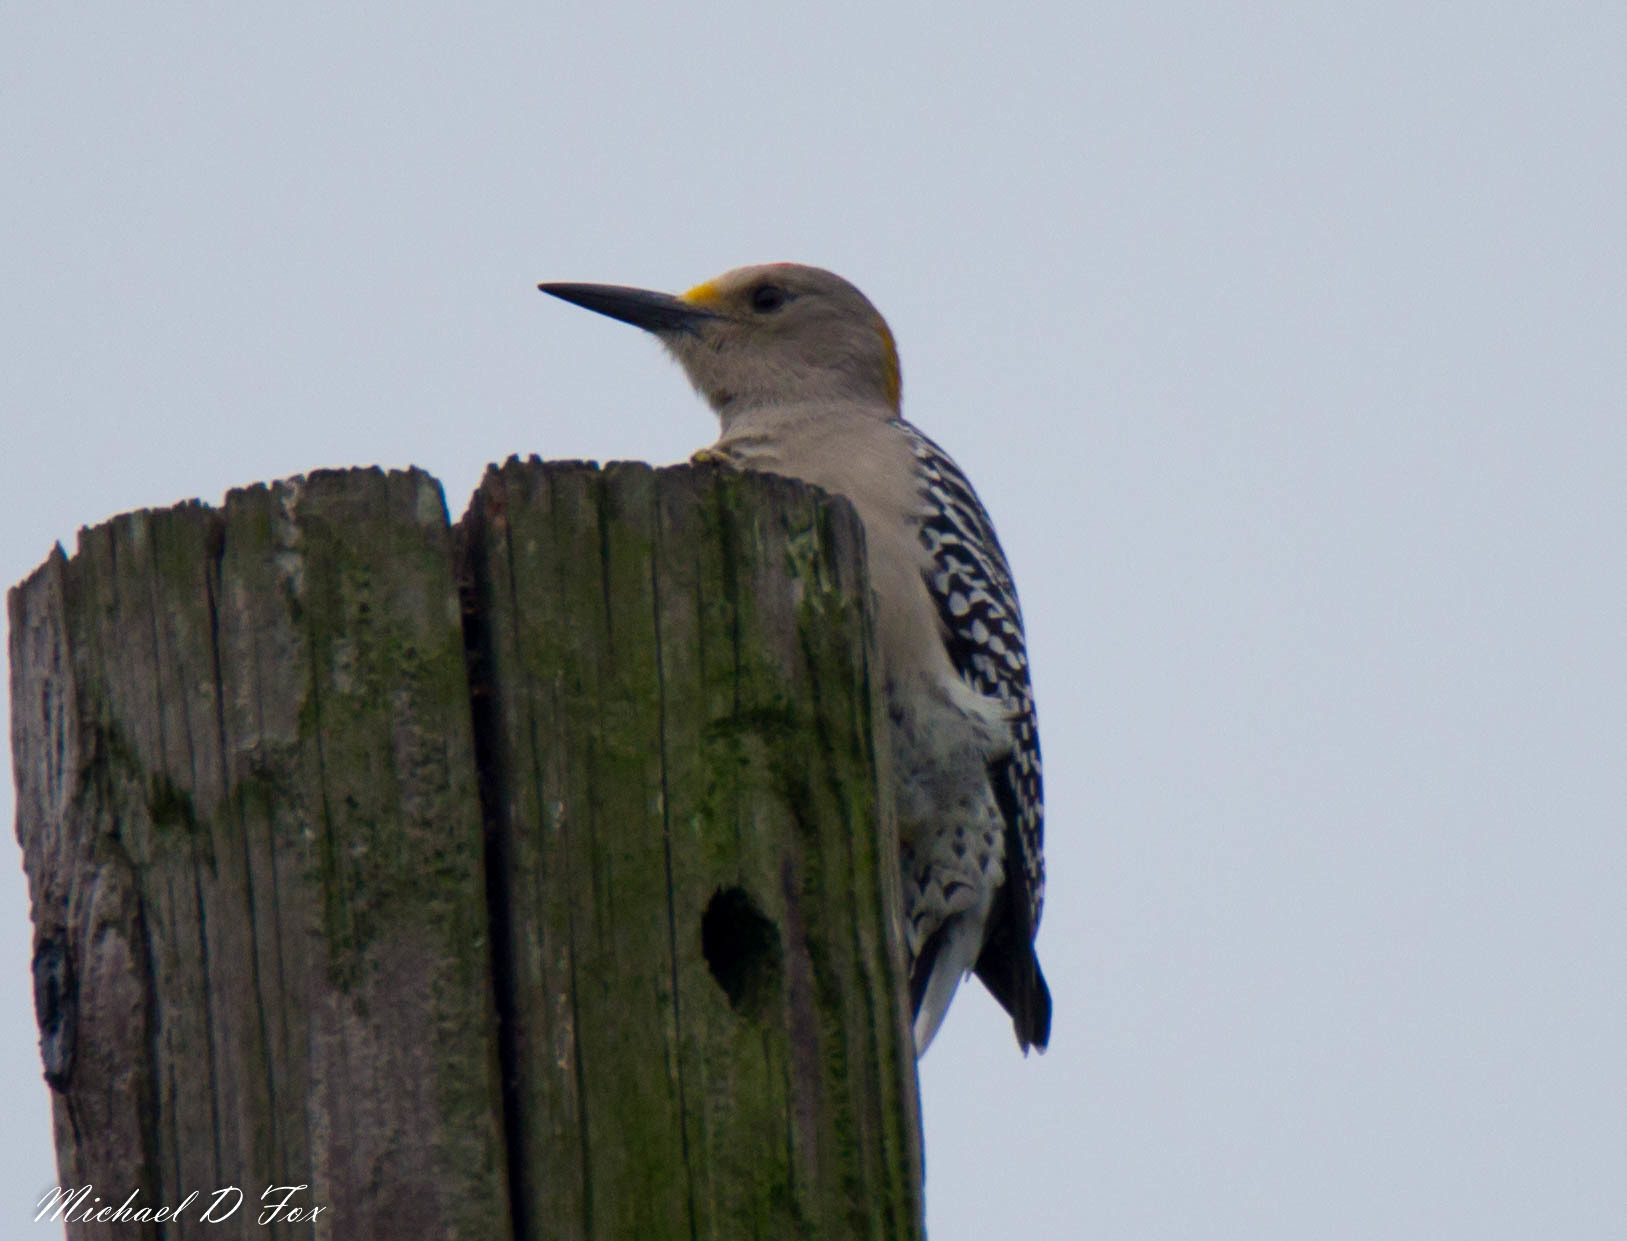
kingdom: Animalia
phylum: Chordata
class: Aves
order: Piciformes
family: Picidae
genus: Melanerpes
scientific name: Melanerpes aurifrons
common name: Golden-fronted woodpecker
